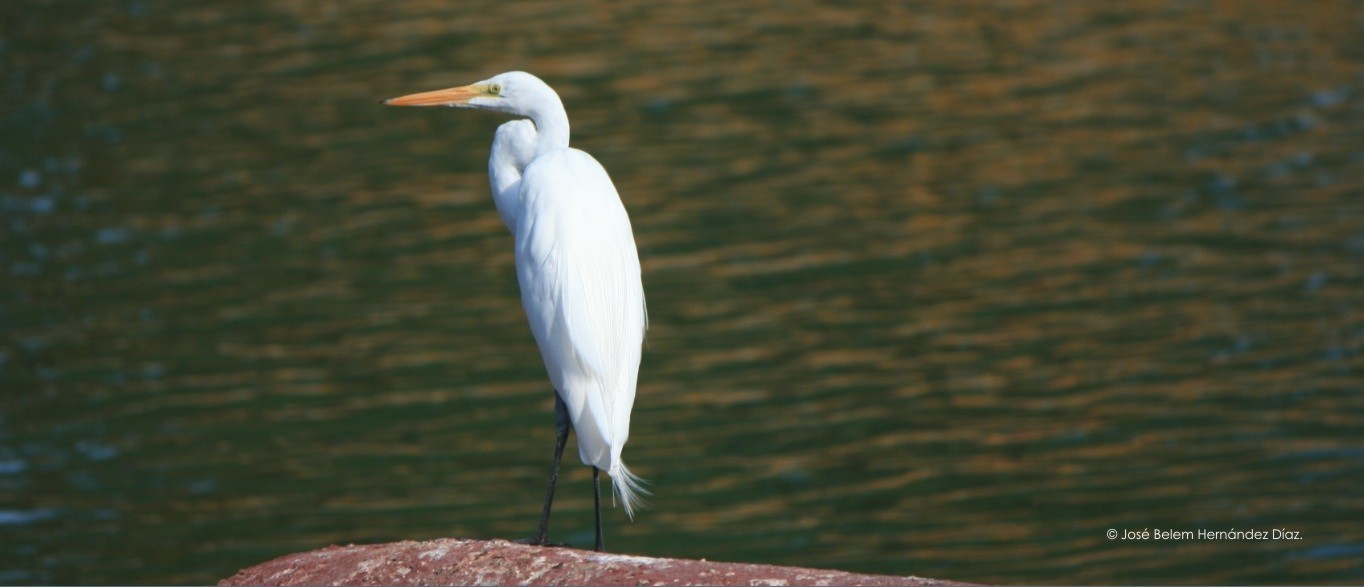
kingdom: Animalia
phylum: Chordata
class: Aves
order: Pelecaniformes
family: Ardeidae
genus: Ardea
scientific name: Ardea alba
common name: Great egret
